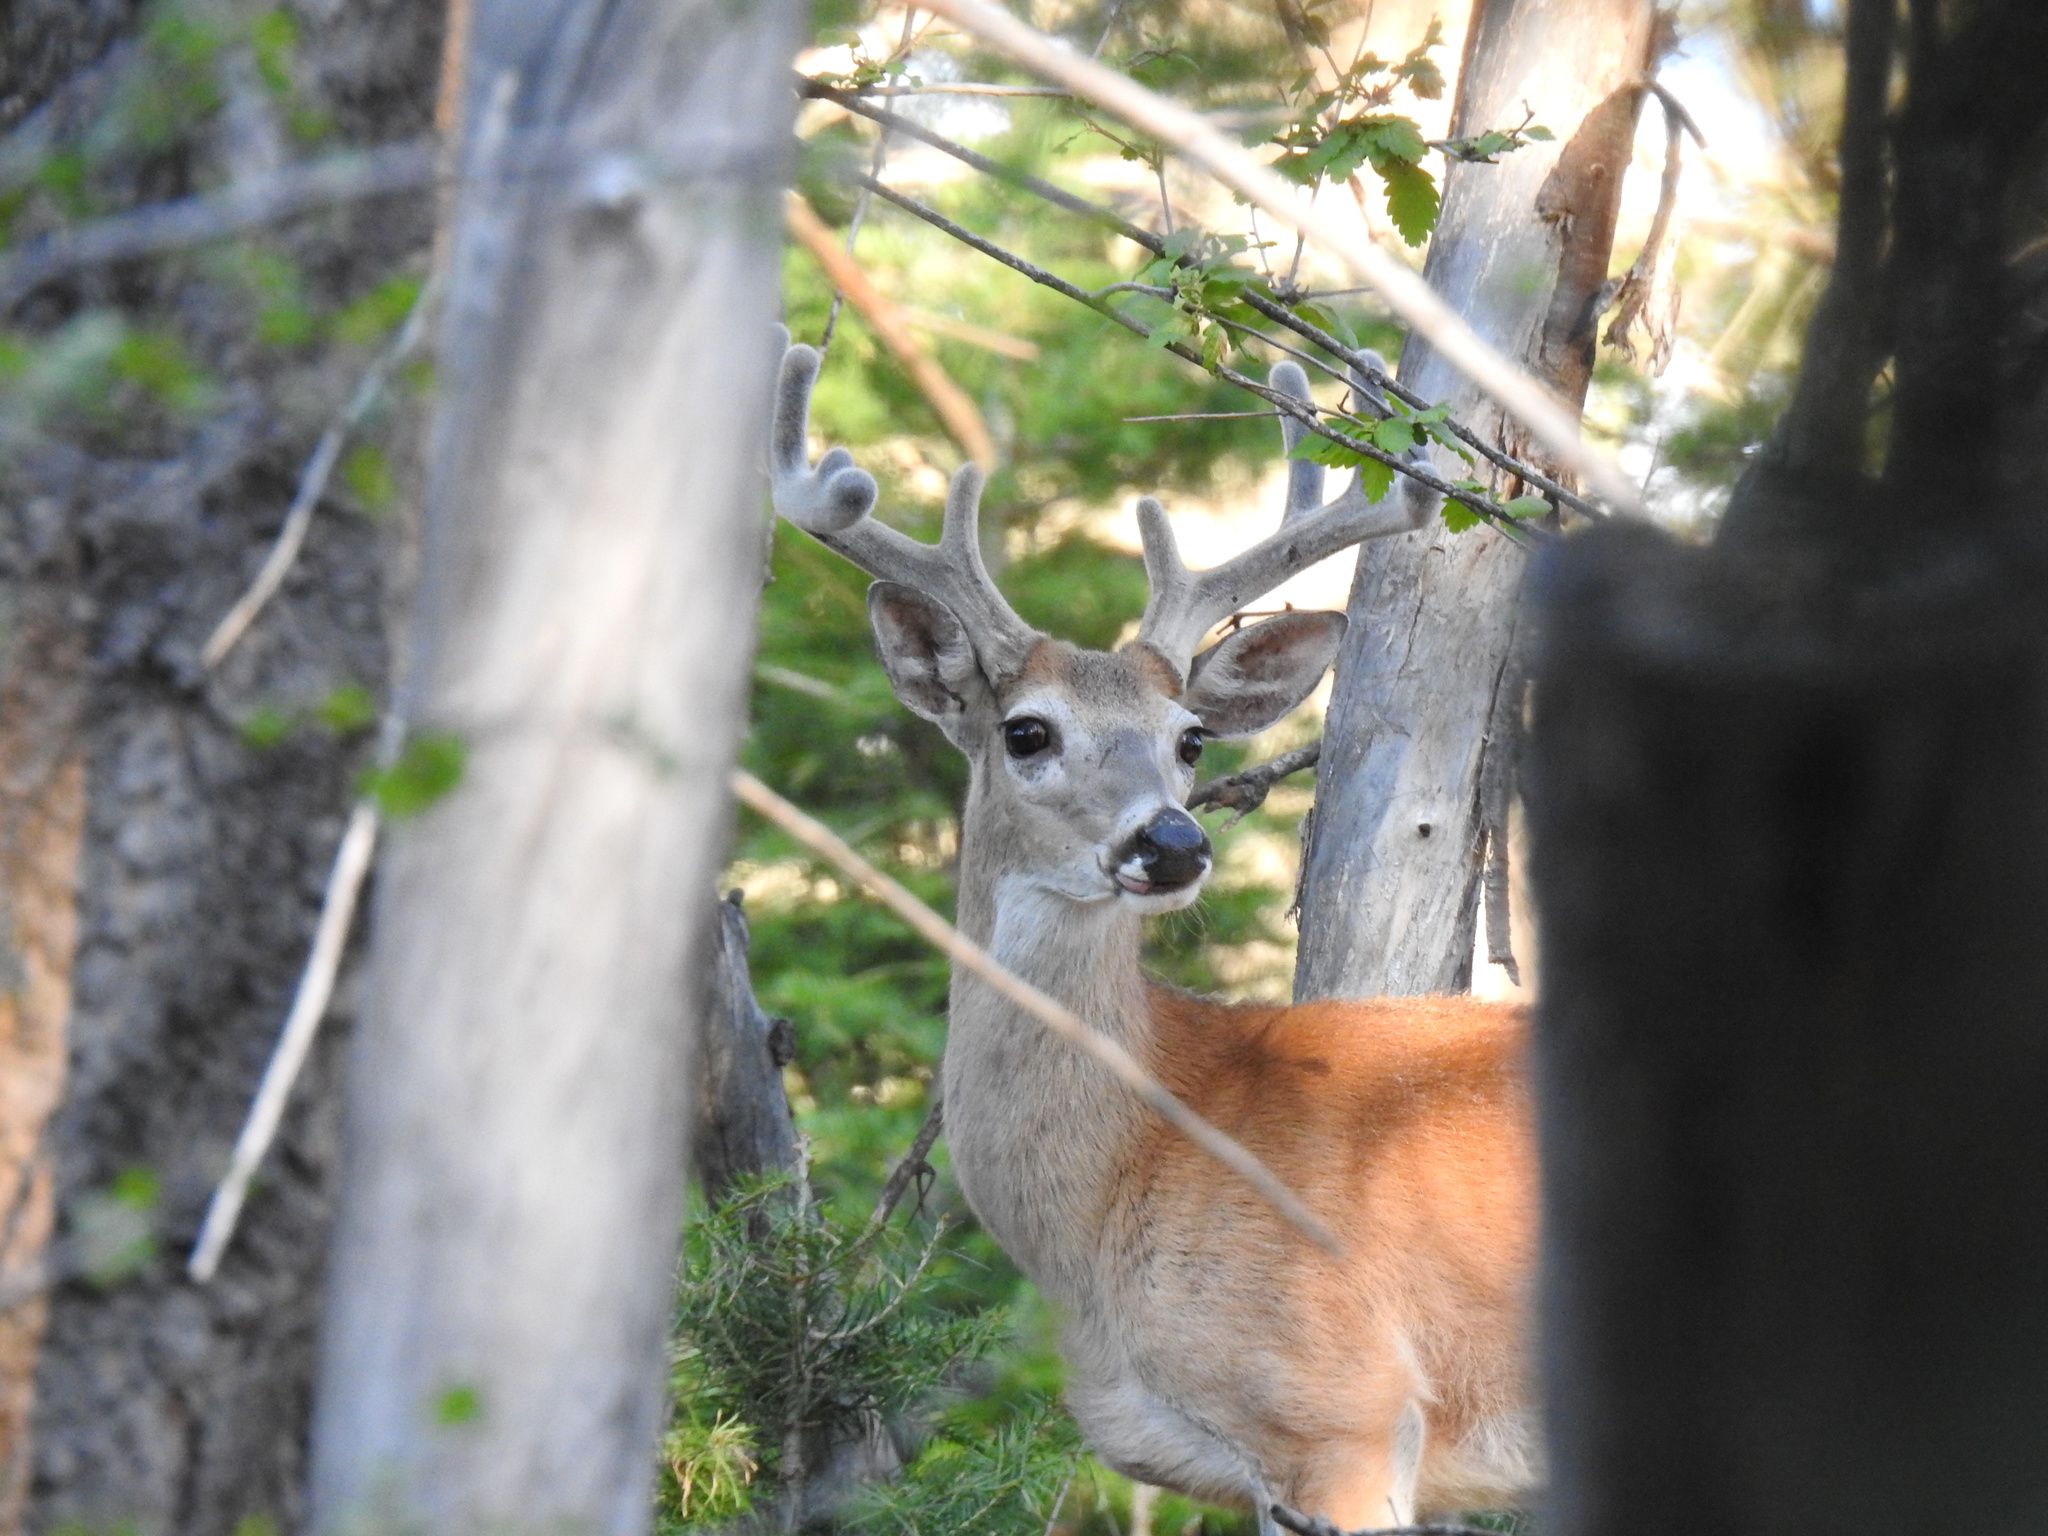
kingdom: Animalia
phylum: Chordata
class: Mammalia
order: Artiodactyla
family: Cervidae
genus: Odocoileus
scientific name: Odocoileus virginianus
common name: White-tailed deer
